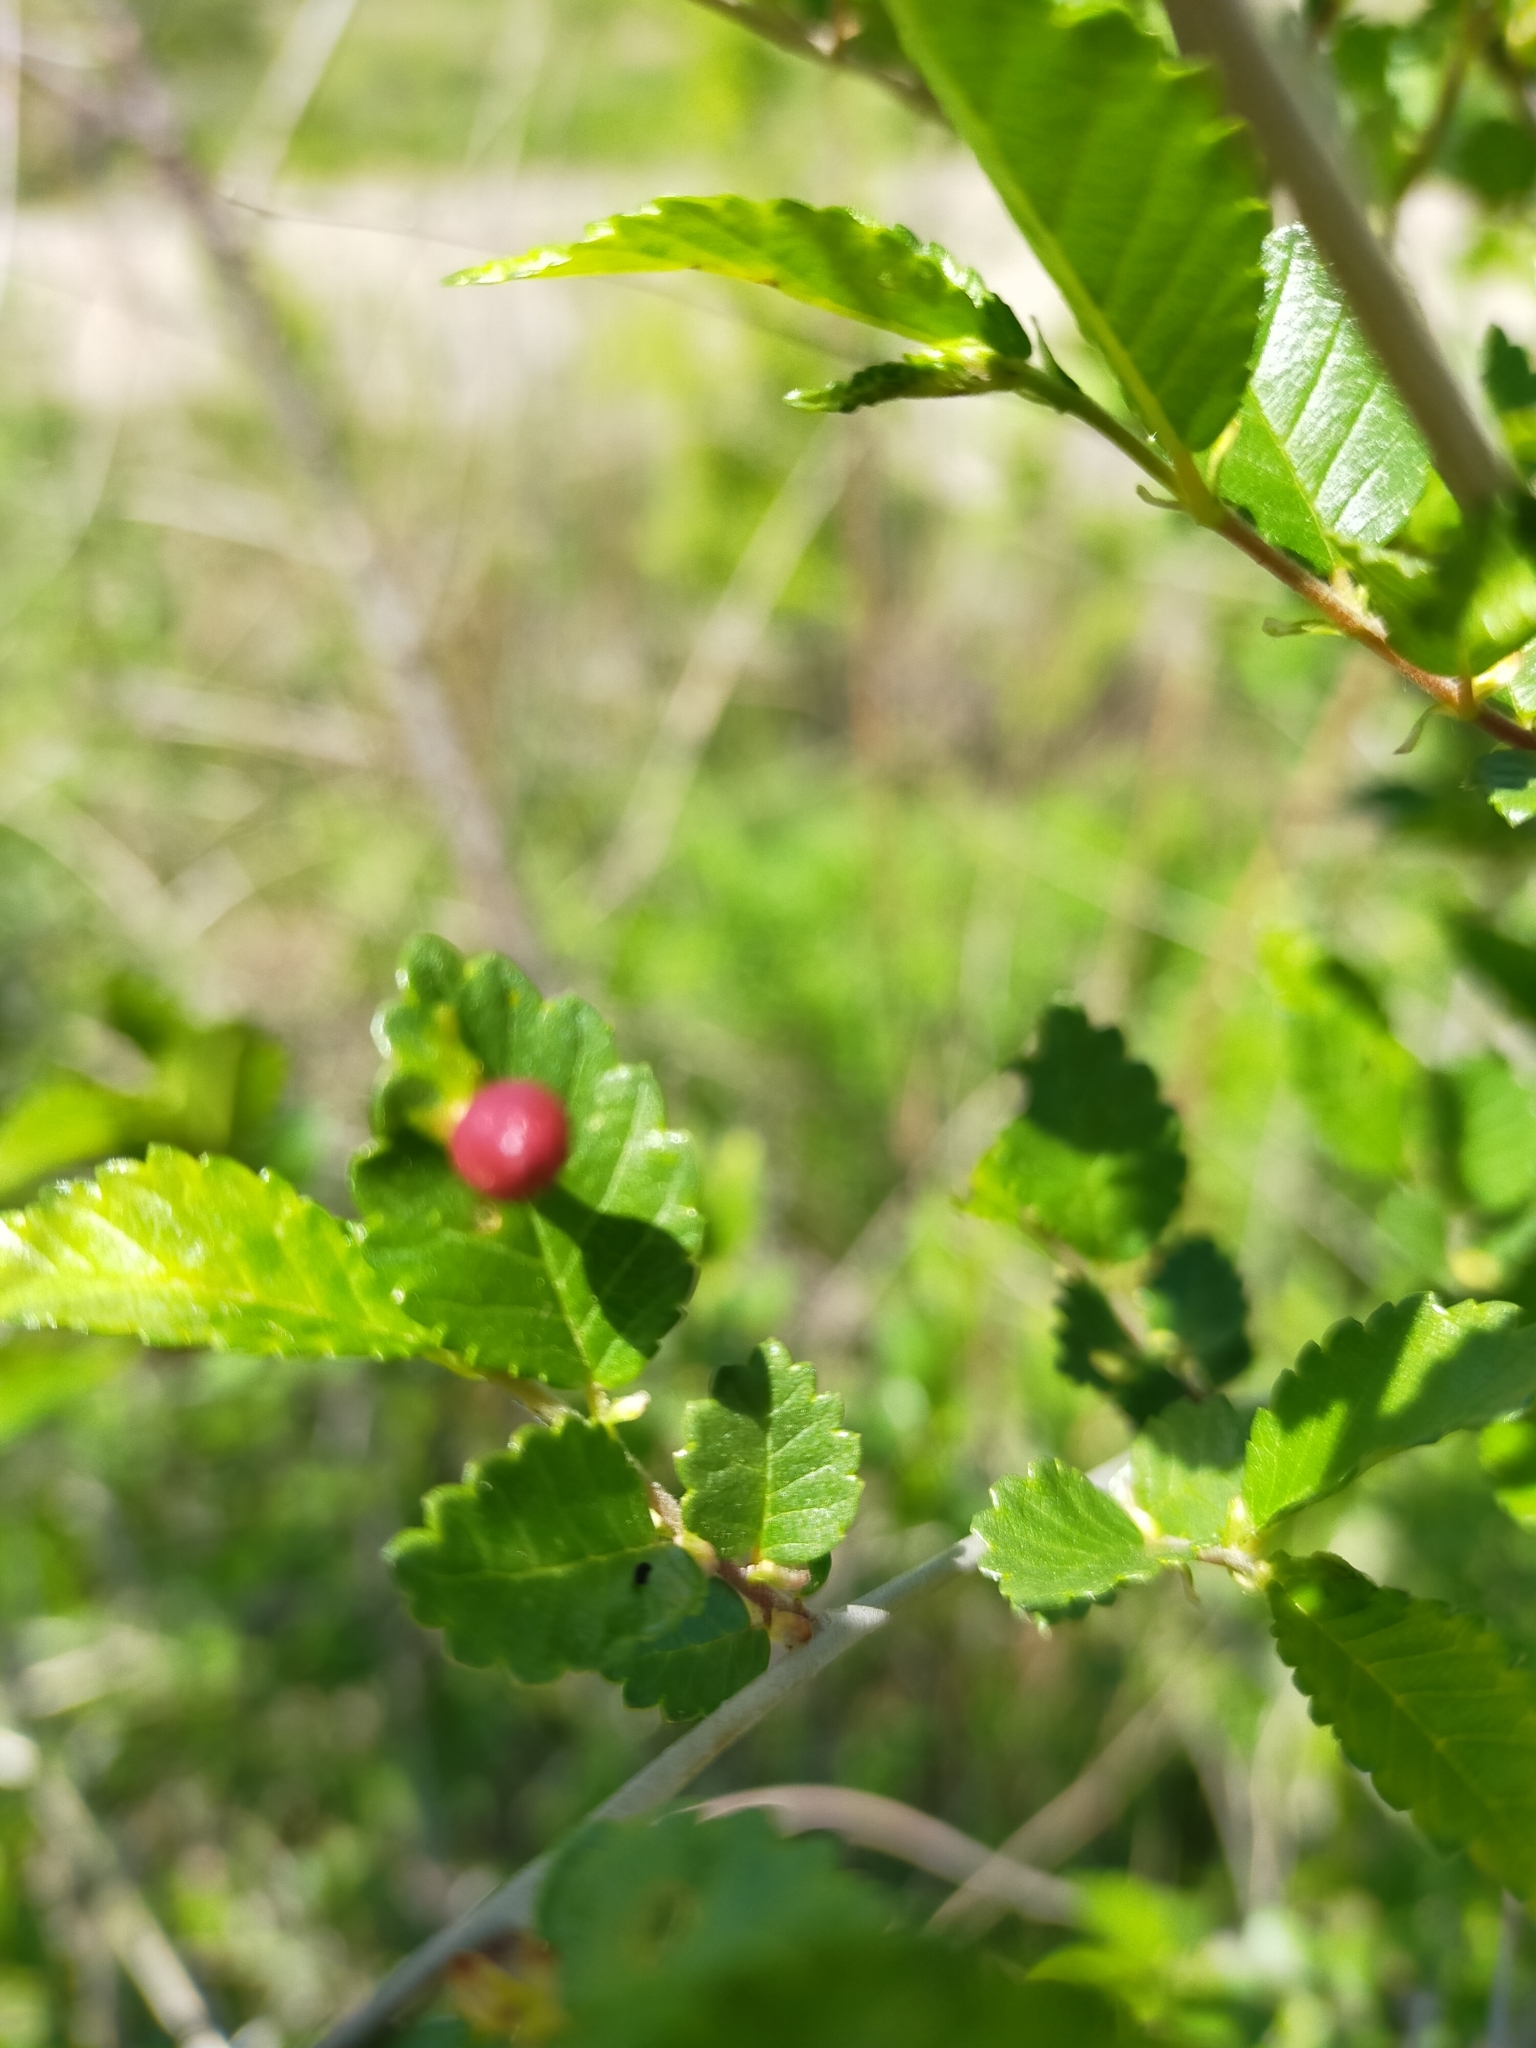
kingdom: Animalia
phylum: Arthropoda
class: Insecta
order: Hemiptera
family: Aphididae
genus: Tetraneura
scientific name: Tetraneura ulmi
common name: Aphid
